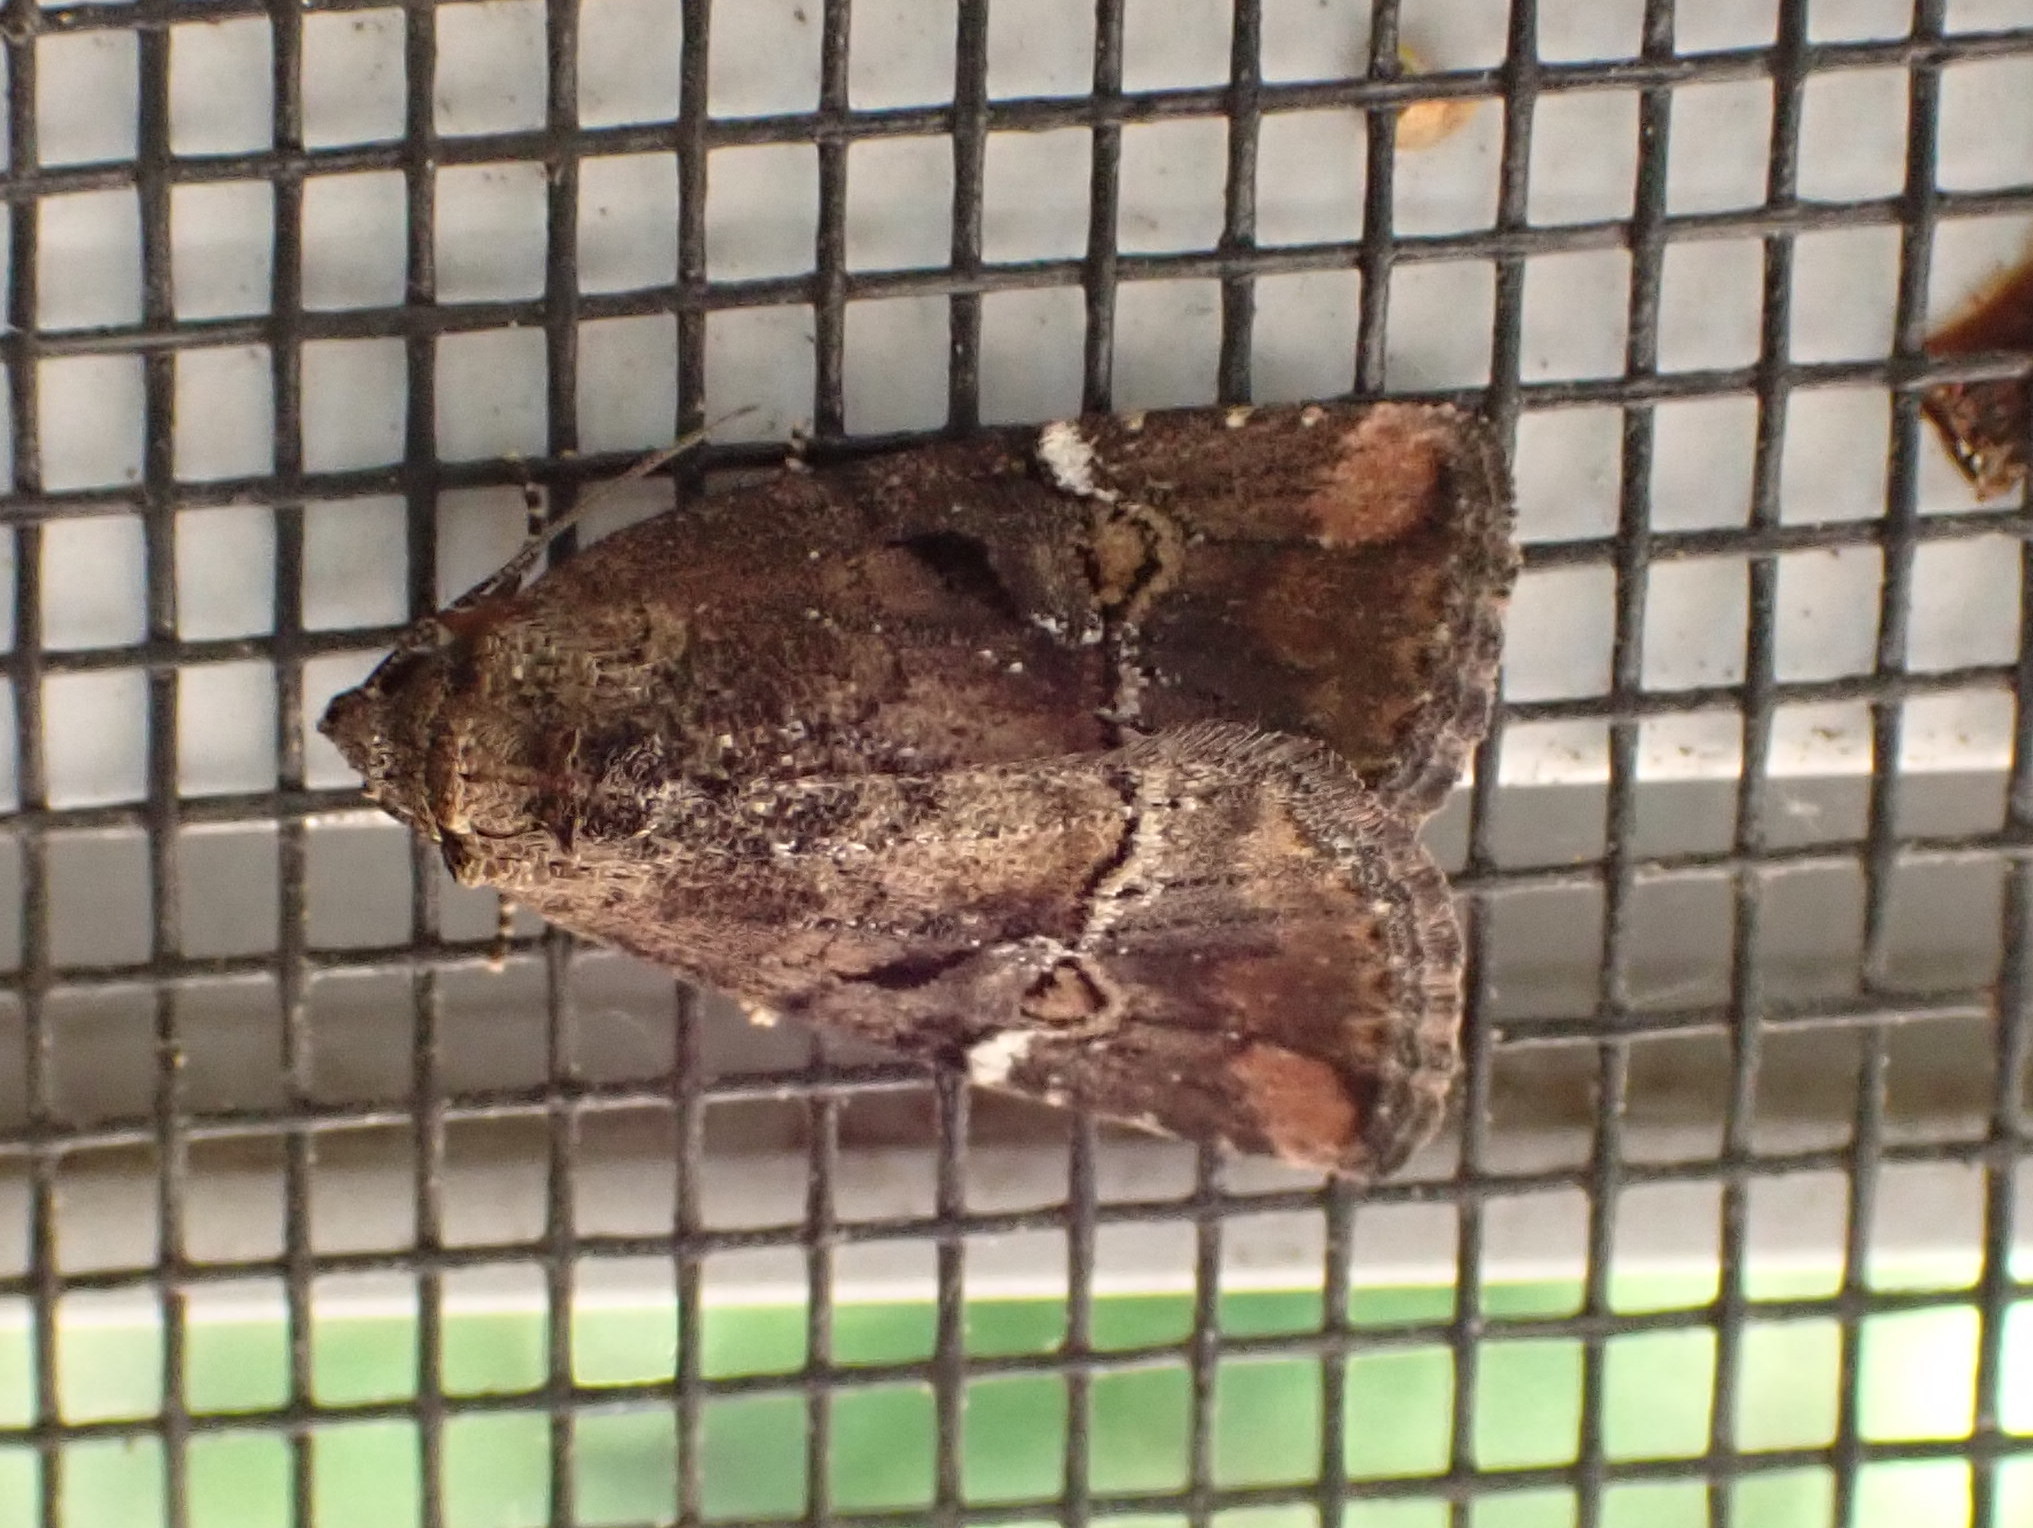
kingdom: Animalia
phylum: Arthropoda
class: Insecta
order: Lepidoptera
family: Noctuidae
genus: Elaphria
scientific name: Elaphria versicolor
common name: Fir harlequin
